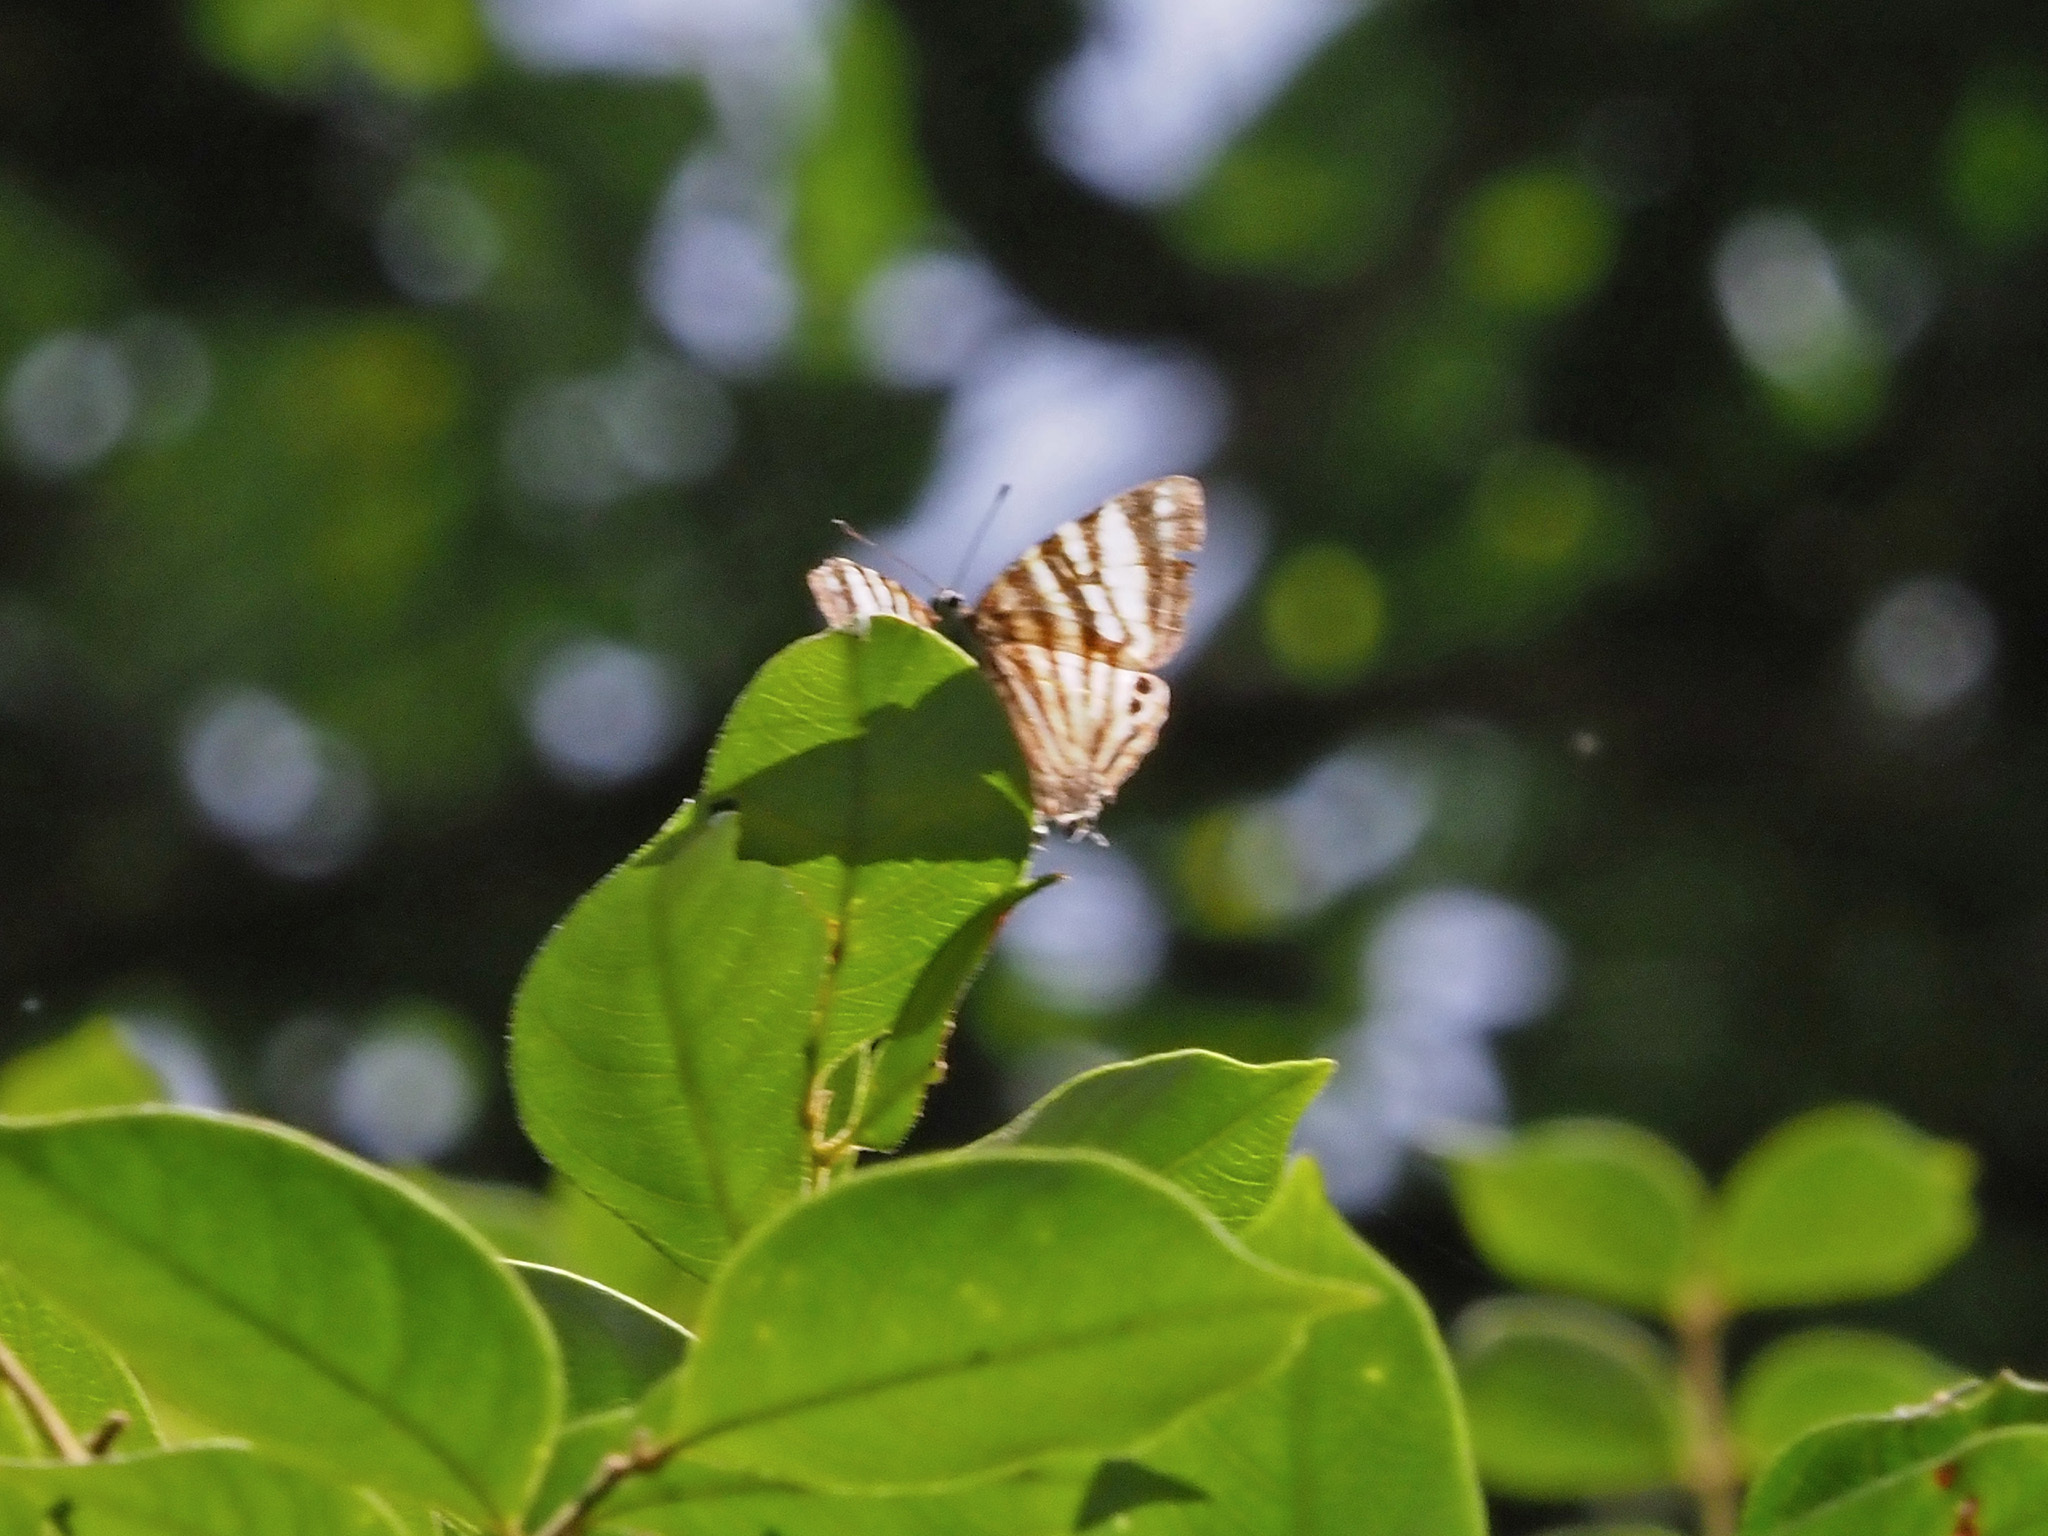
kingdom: Animalia
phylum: Arthropoda
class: Insecta
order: Lepidoptera
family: Lycaenidae
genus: Dodona
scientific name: Dodona elvira
